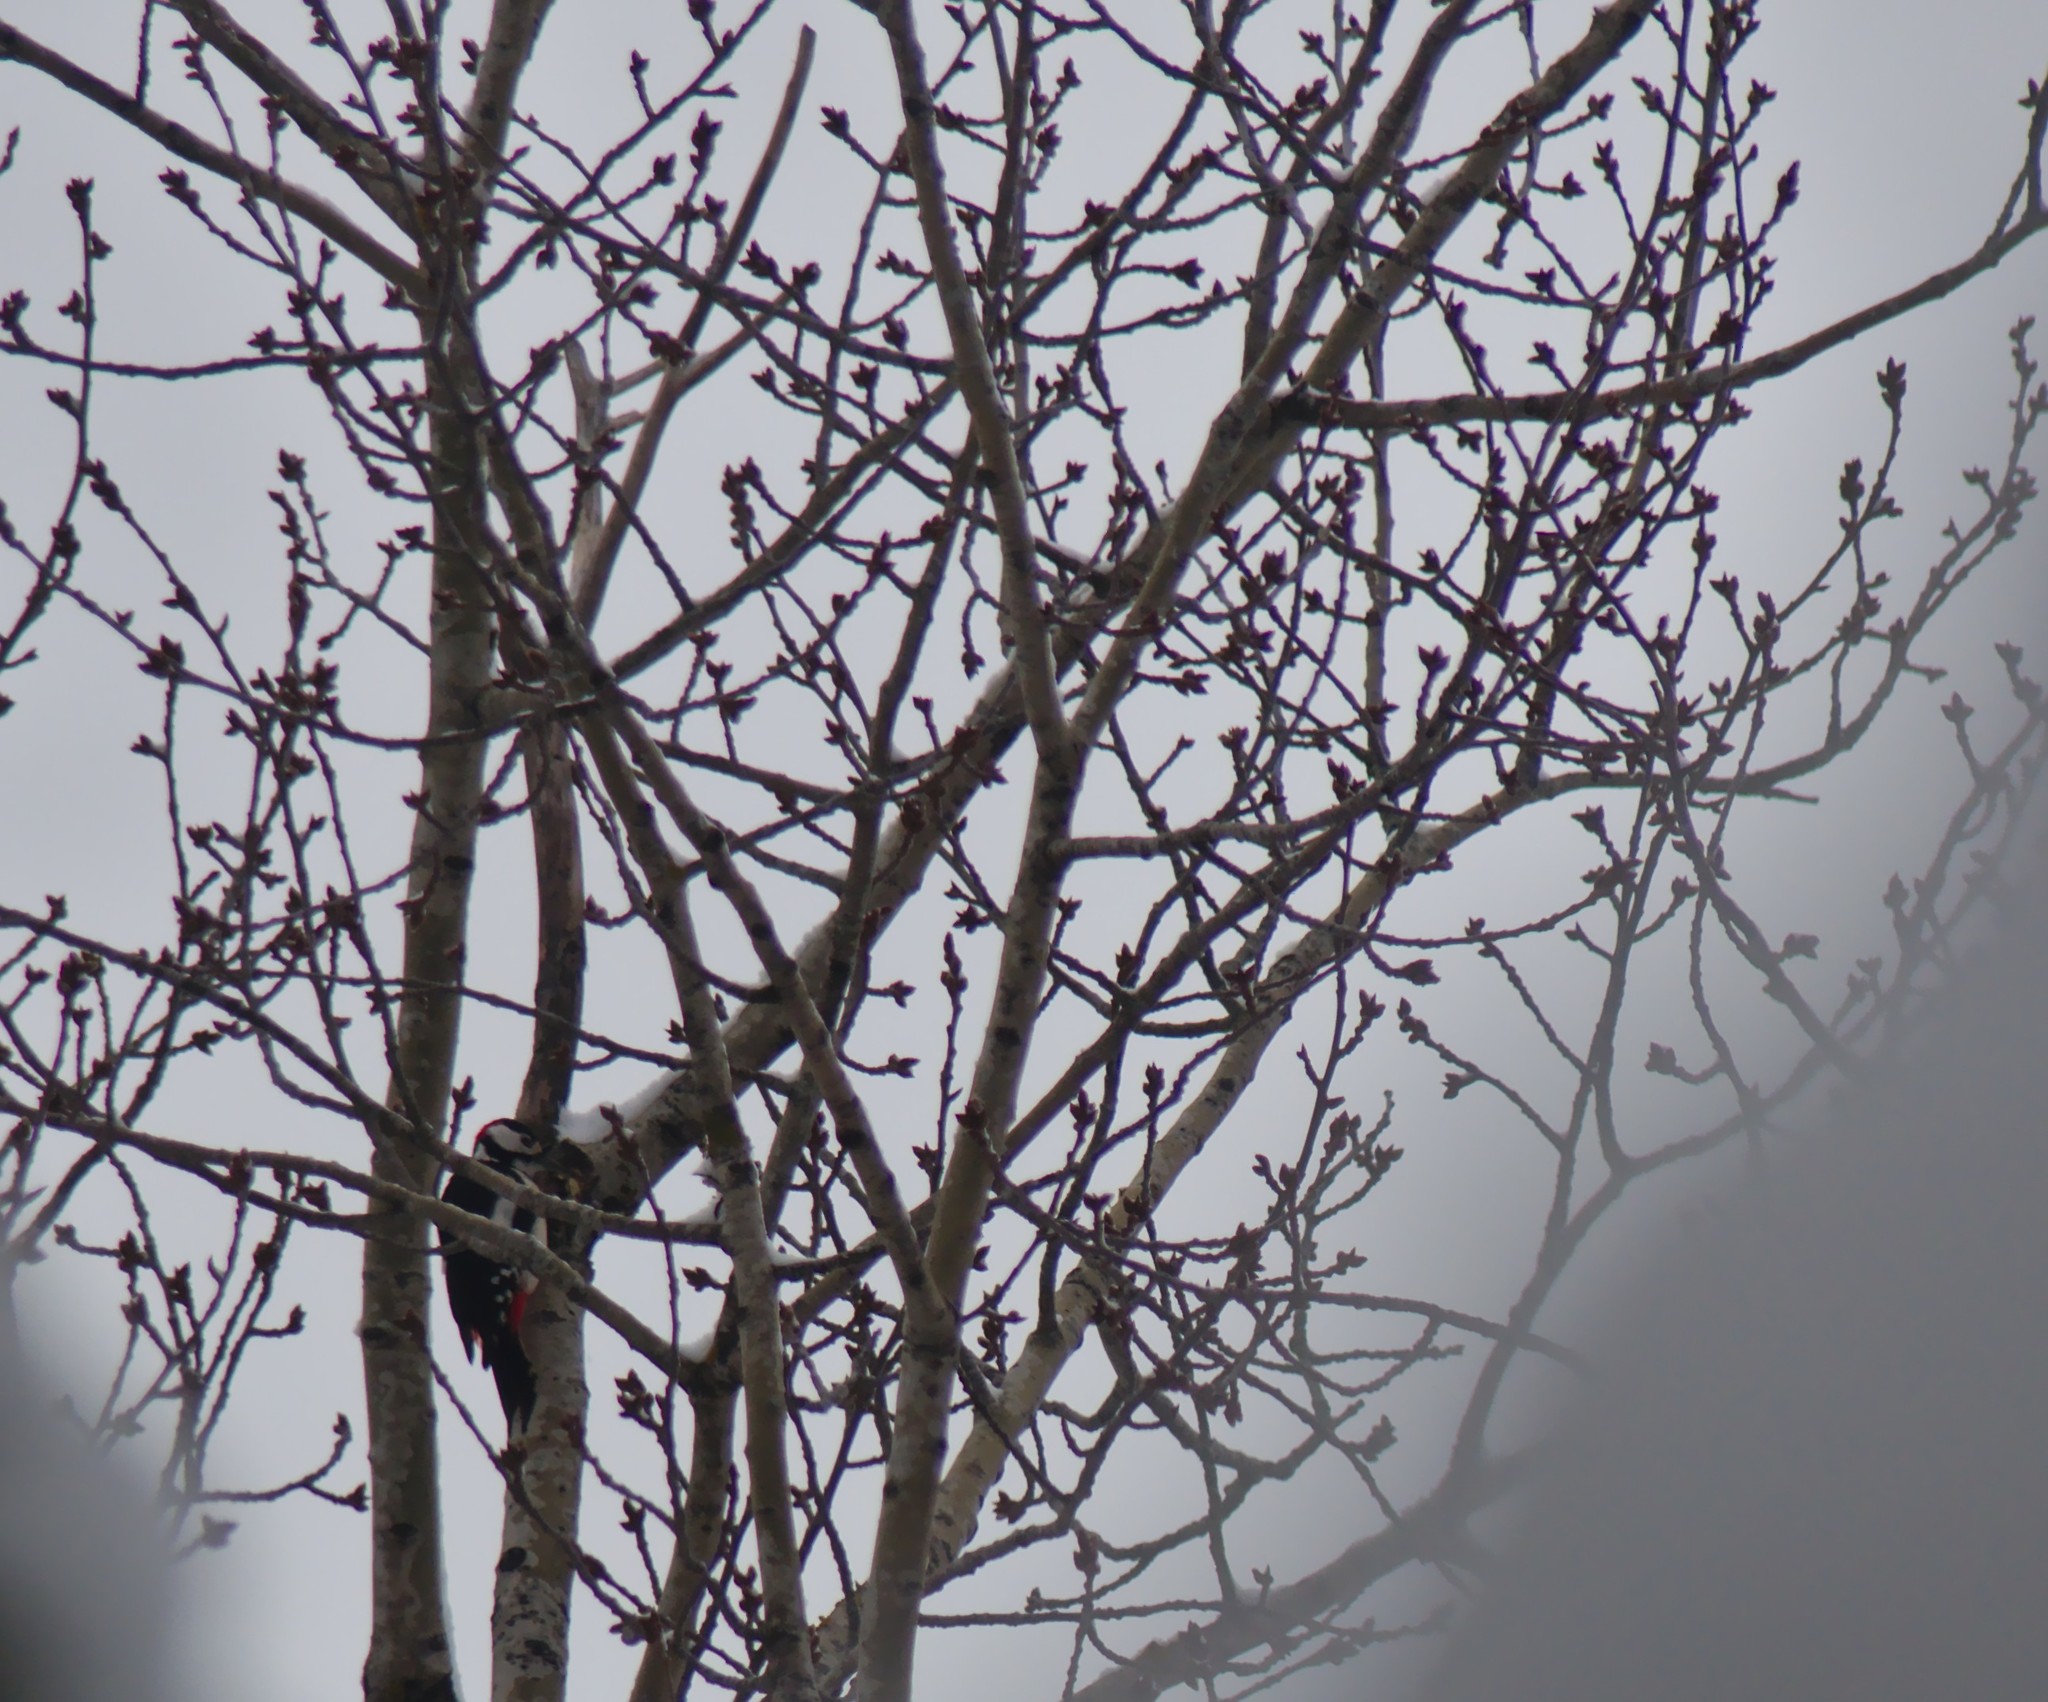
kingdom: Animalia
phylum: Chordata
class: Aves
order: Piciformes
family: Picidae
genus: Dendrocopos
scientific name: Dendrocopos major
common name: Great spotted woodpecker
